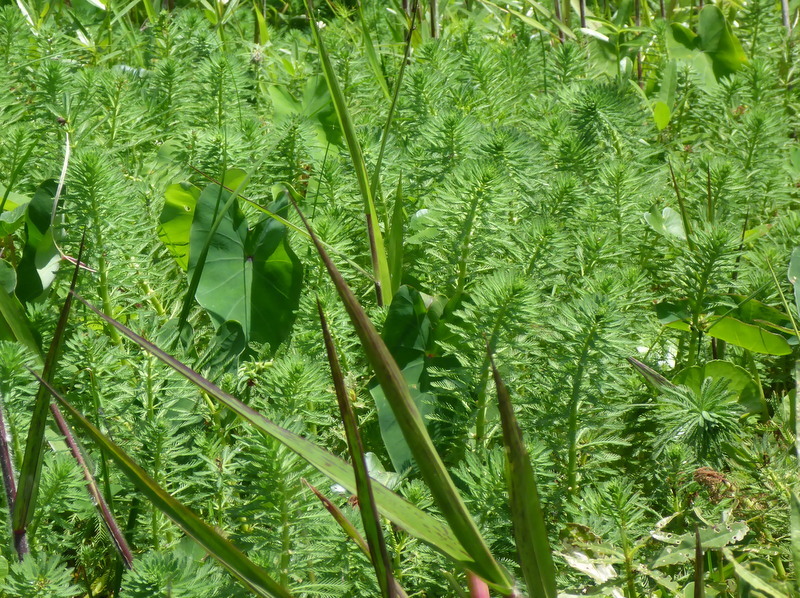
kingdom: Plantae
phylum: Tracheophyta
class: Magnoliopsida
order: Saxifragales
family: Haloragaceae
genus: Myriophyllum
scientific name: Myriophyllum aquaticum
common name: Parrot's feather
